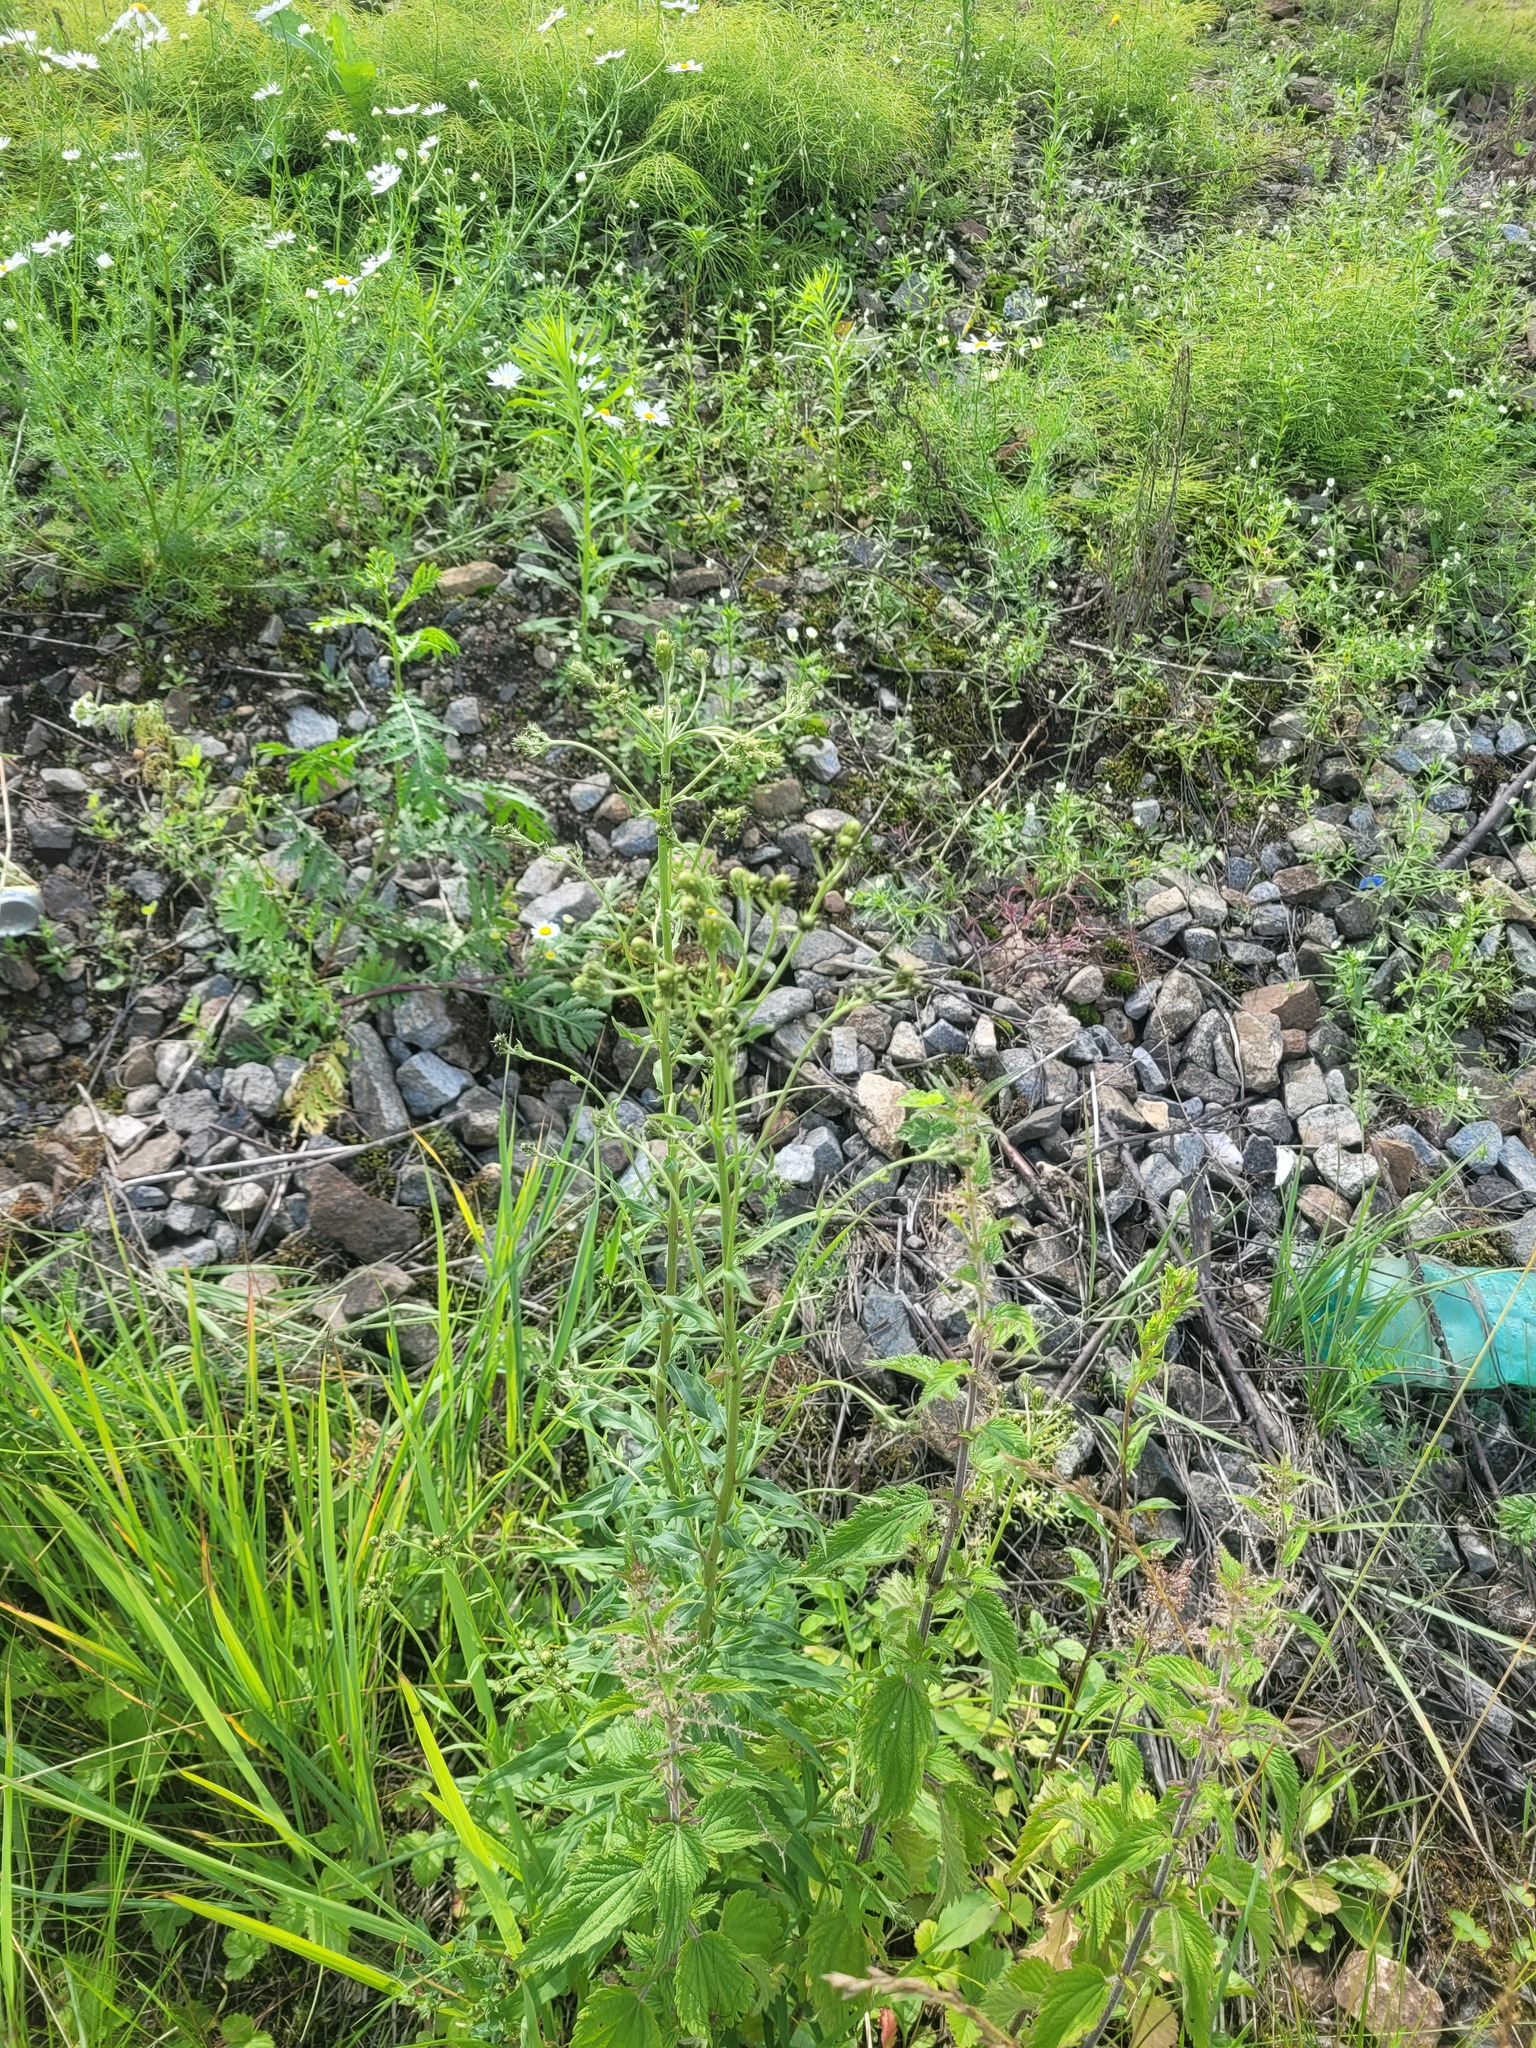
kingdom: Plantae
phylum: Tracheophyta
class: Magnoliopsida
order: Asterales
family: Asteraceae
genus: Hieracium
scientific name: Hieracium umbellatum
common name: Northern hawkweed
